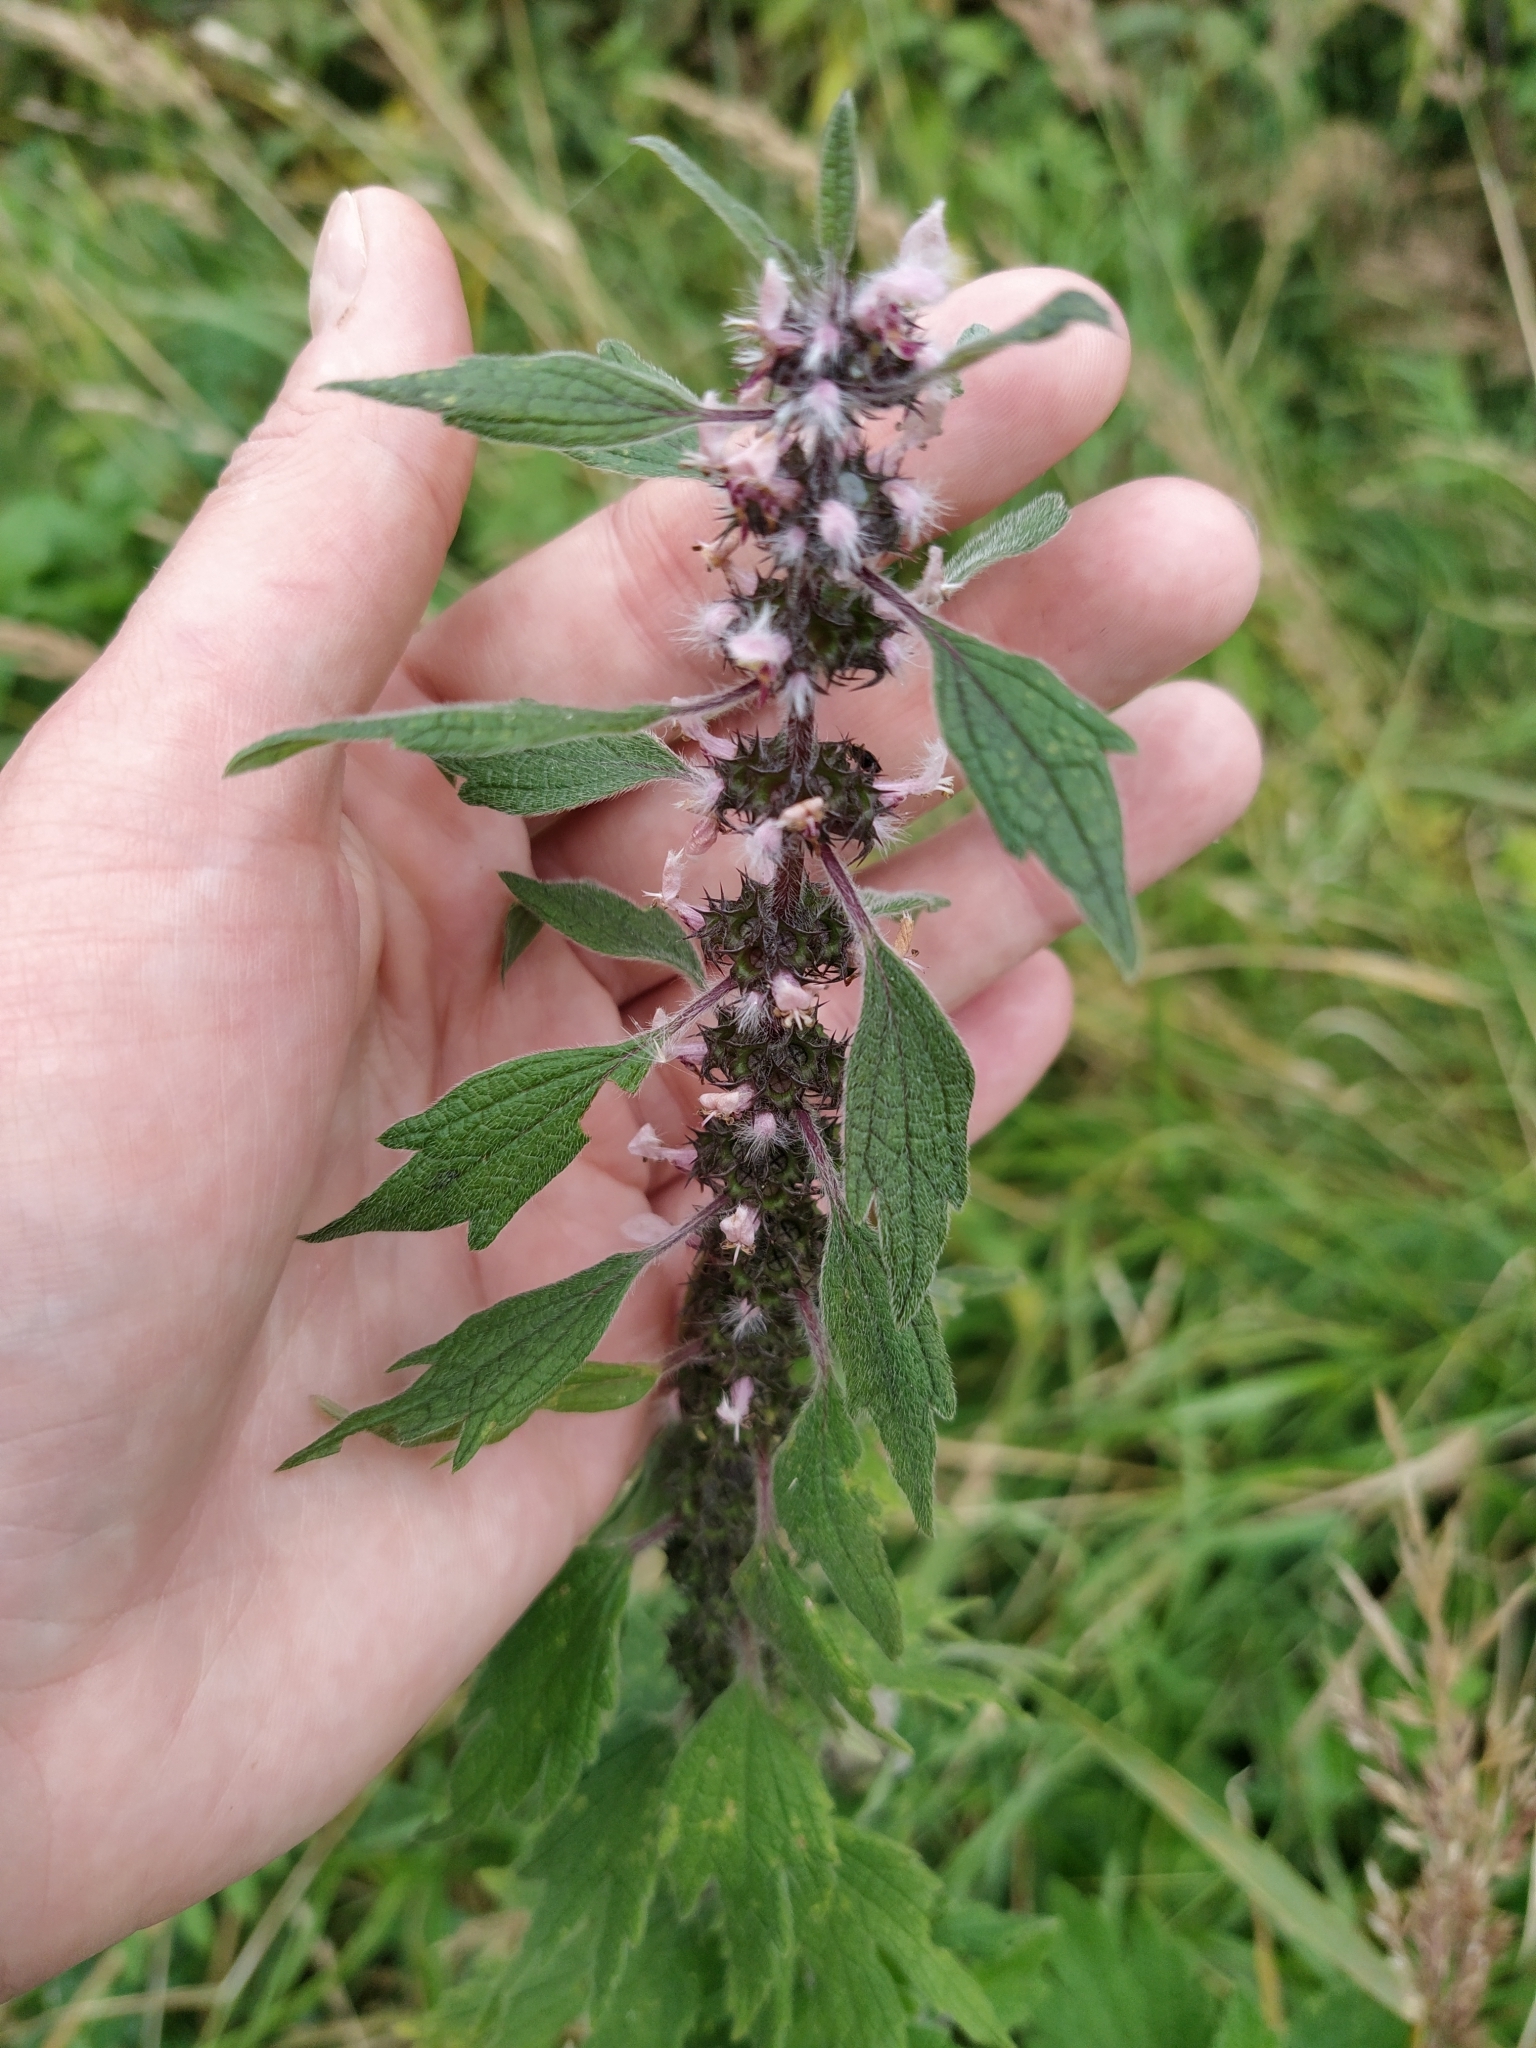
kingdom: Plantae
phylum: Tracheophyta
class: Magnoliopsida
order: Lamiales
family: Lamiaceae
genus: Leonurus
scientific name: Leonurus quinquelobatus
